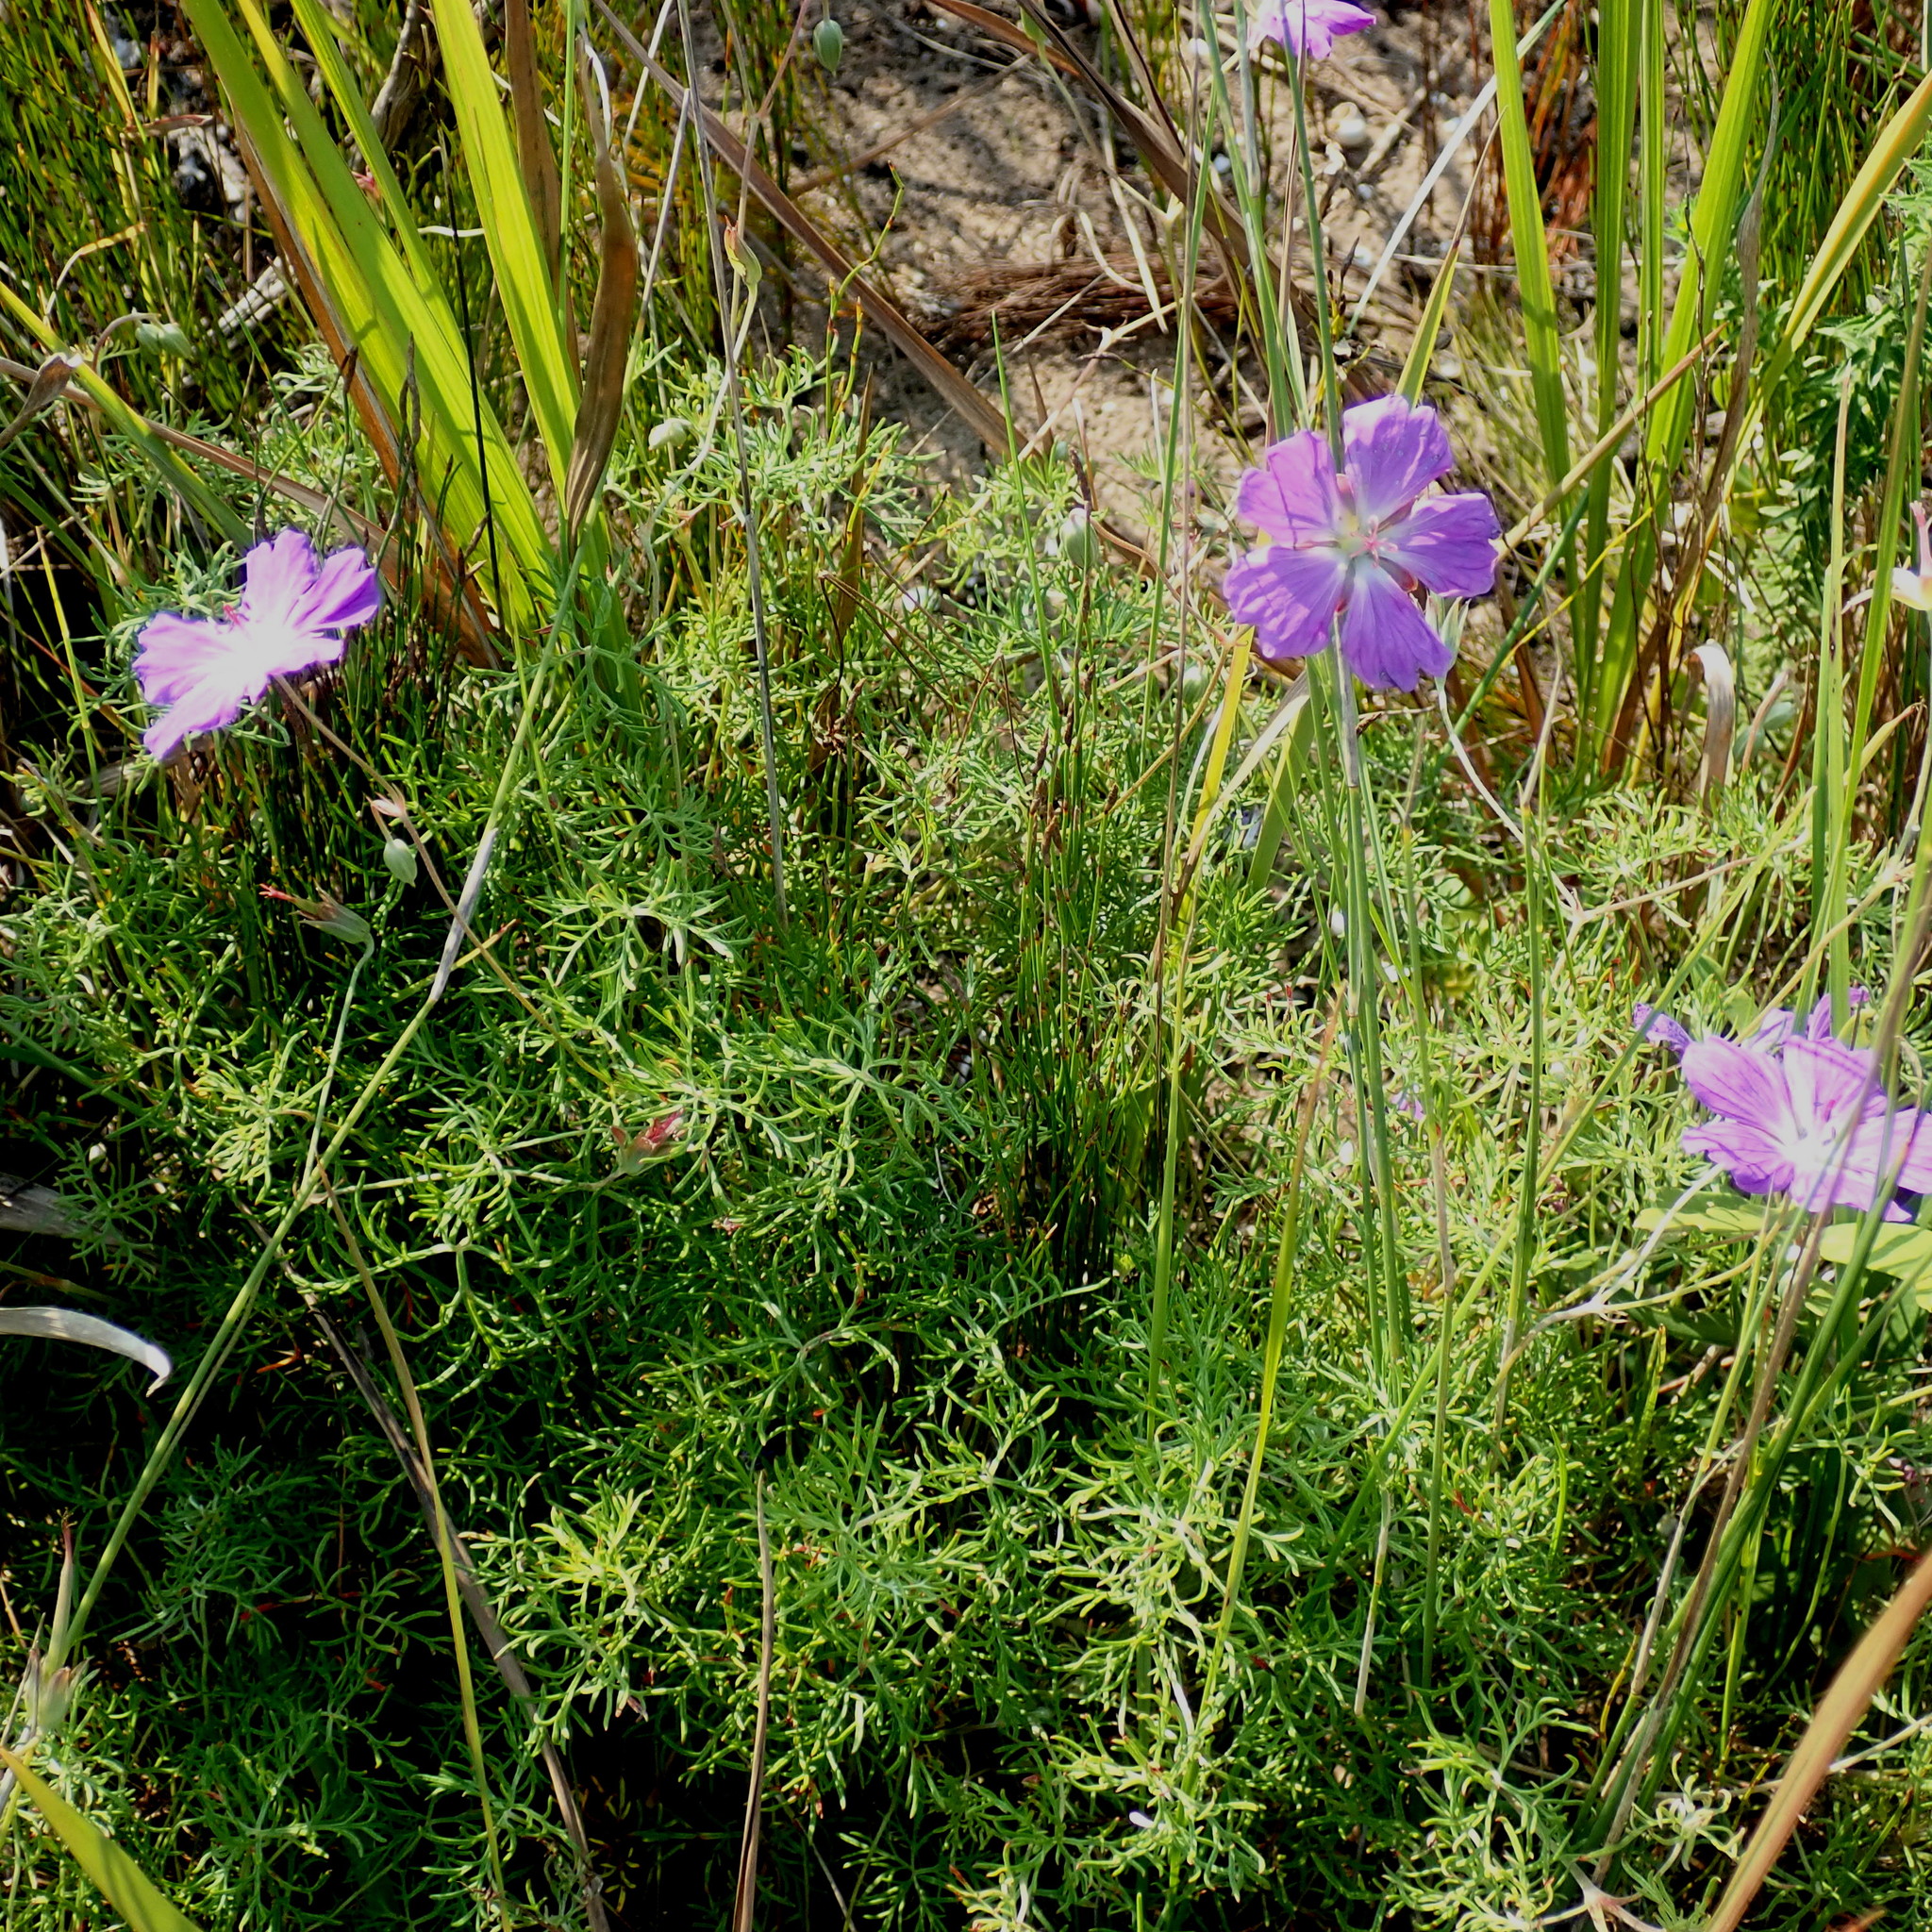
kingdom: Plantae
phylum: Tracheophyta
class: Magnoliopsida
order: Geraniales
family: Geraniaceae
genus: Geranium
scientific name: Geranium incanum
